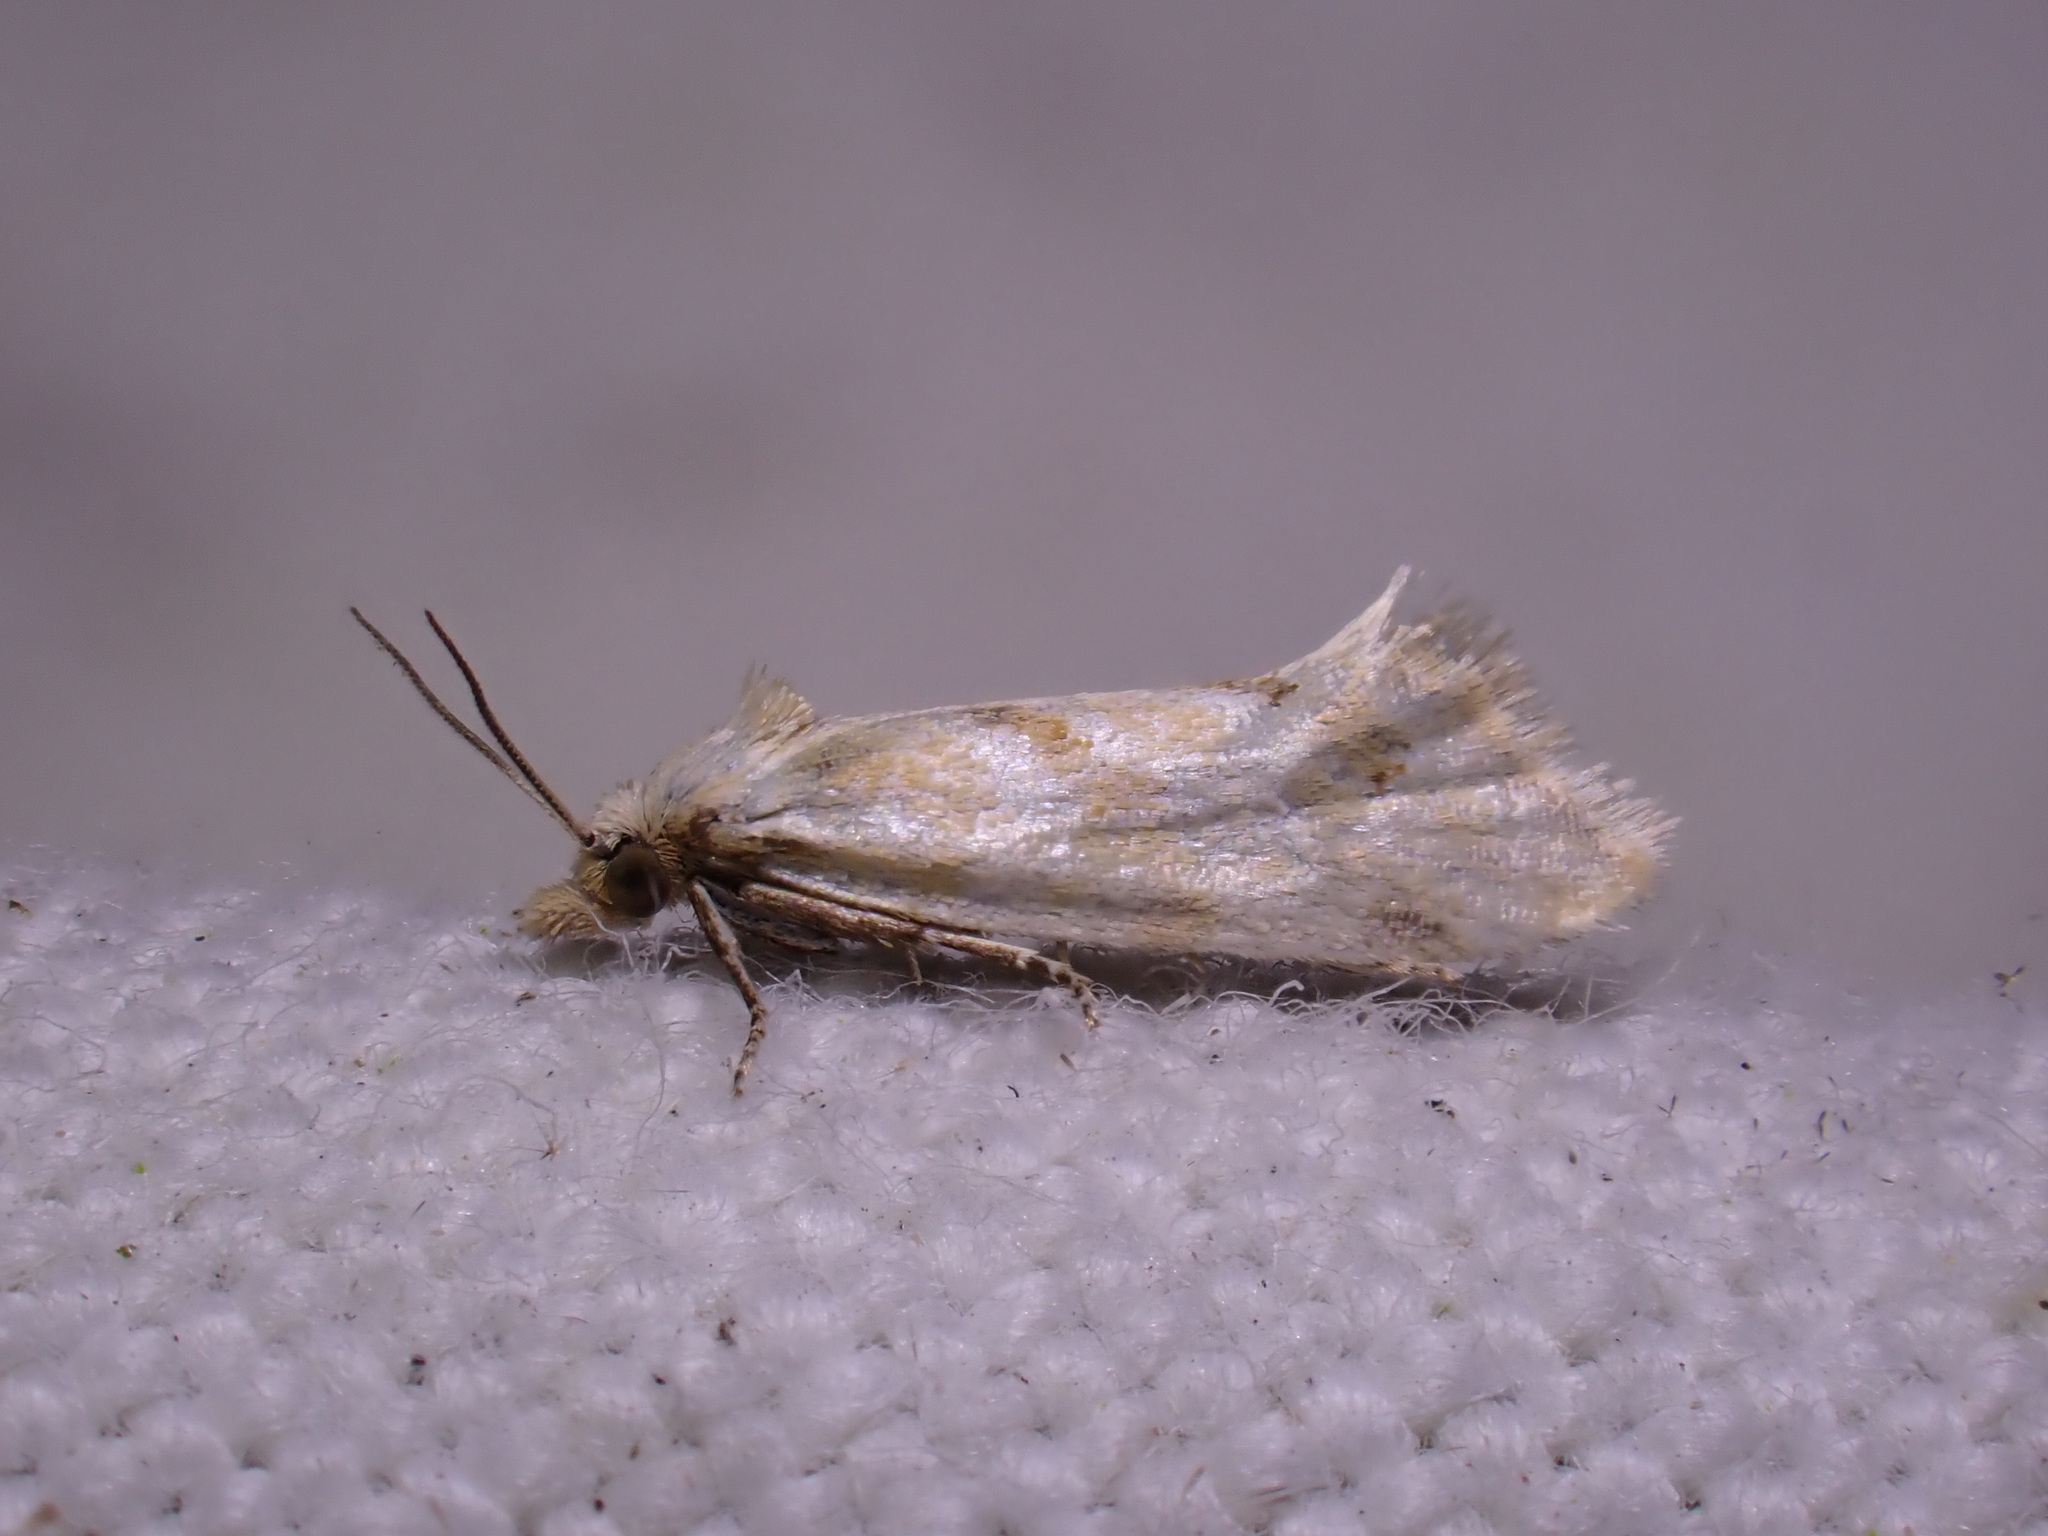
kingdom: Animalia
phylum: Arthropoda
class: Insecta
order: Lepidoptera
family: Tortricidae
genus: Aethes
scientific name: Aethes smeathmanniana
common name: Yarrow conch
